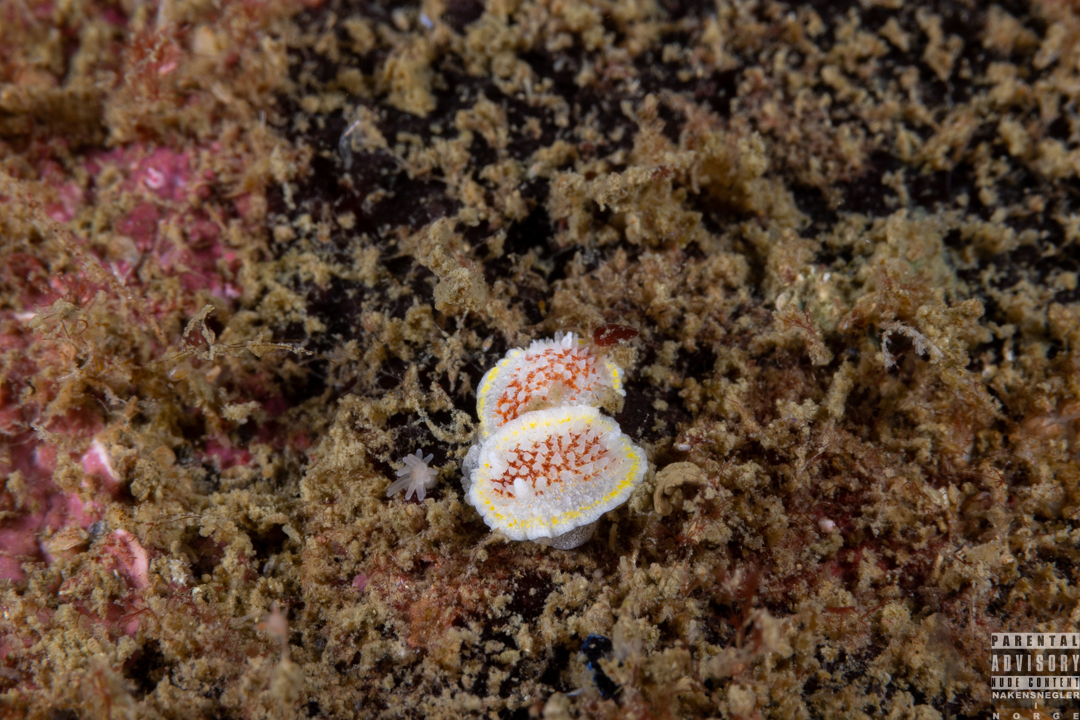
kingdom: Animalia
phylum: Mollusca
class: Gastropoda
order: Nudibranchia
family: Calycidorididae
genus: Diaphorodoris
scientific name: Diaphorodoris luteocincta
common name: Fried egg nudibranch
